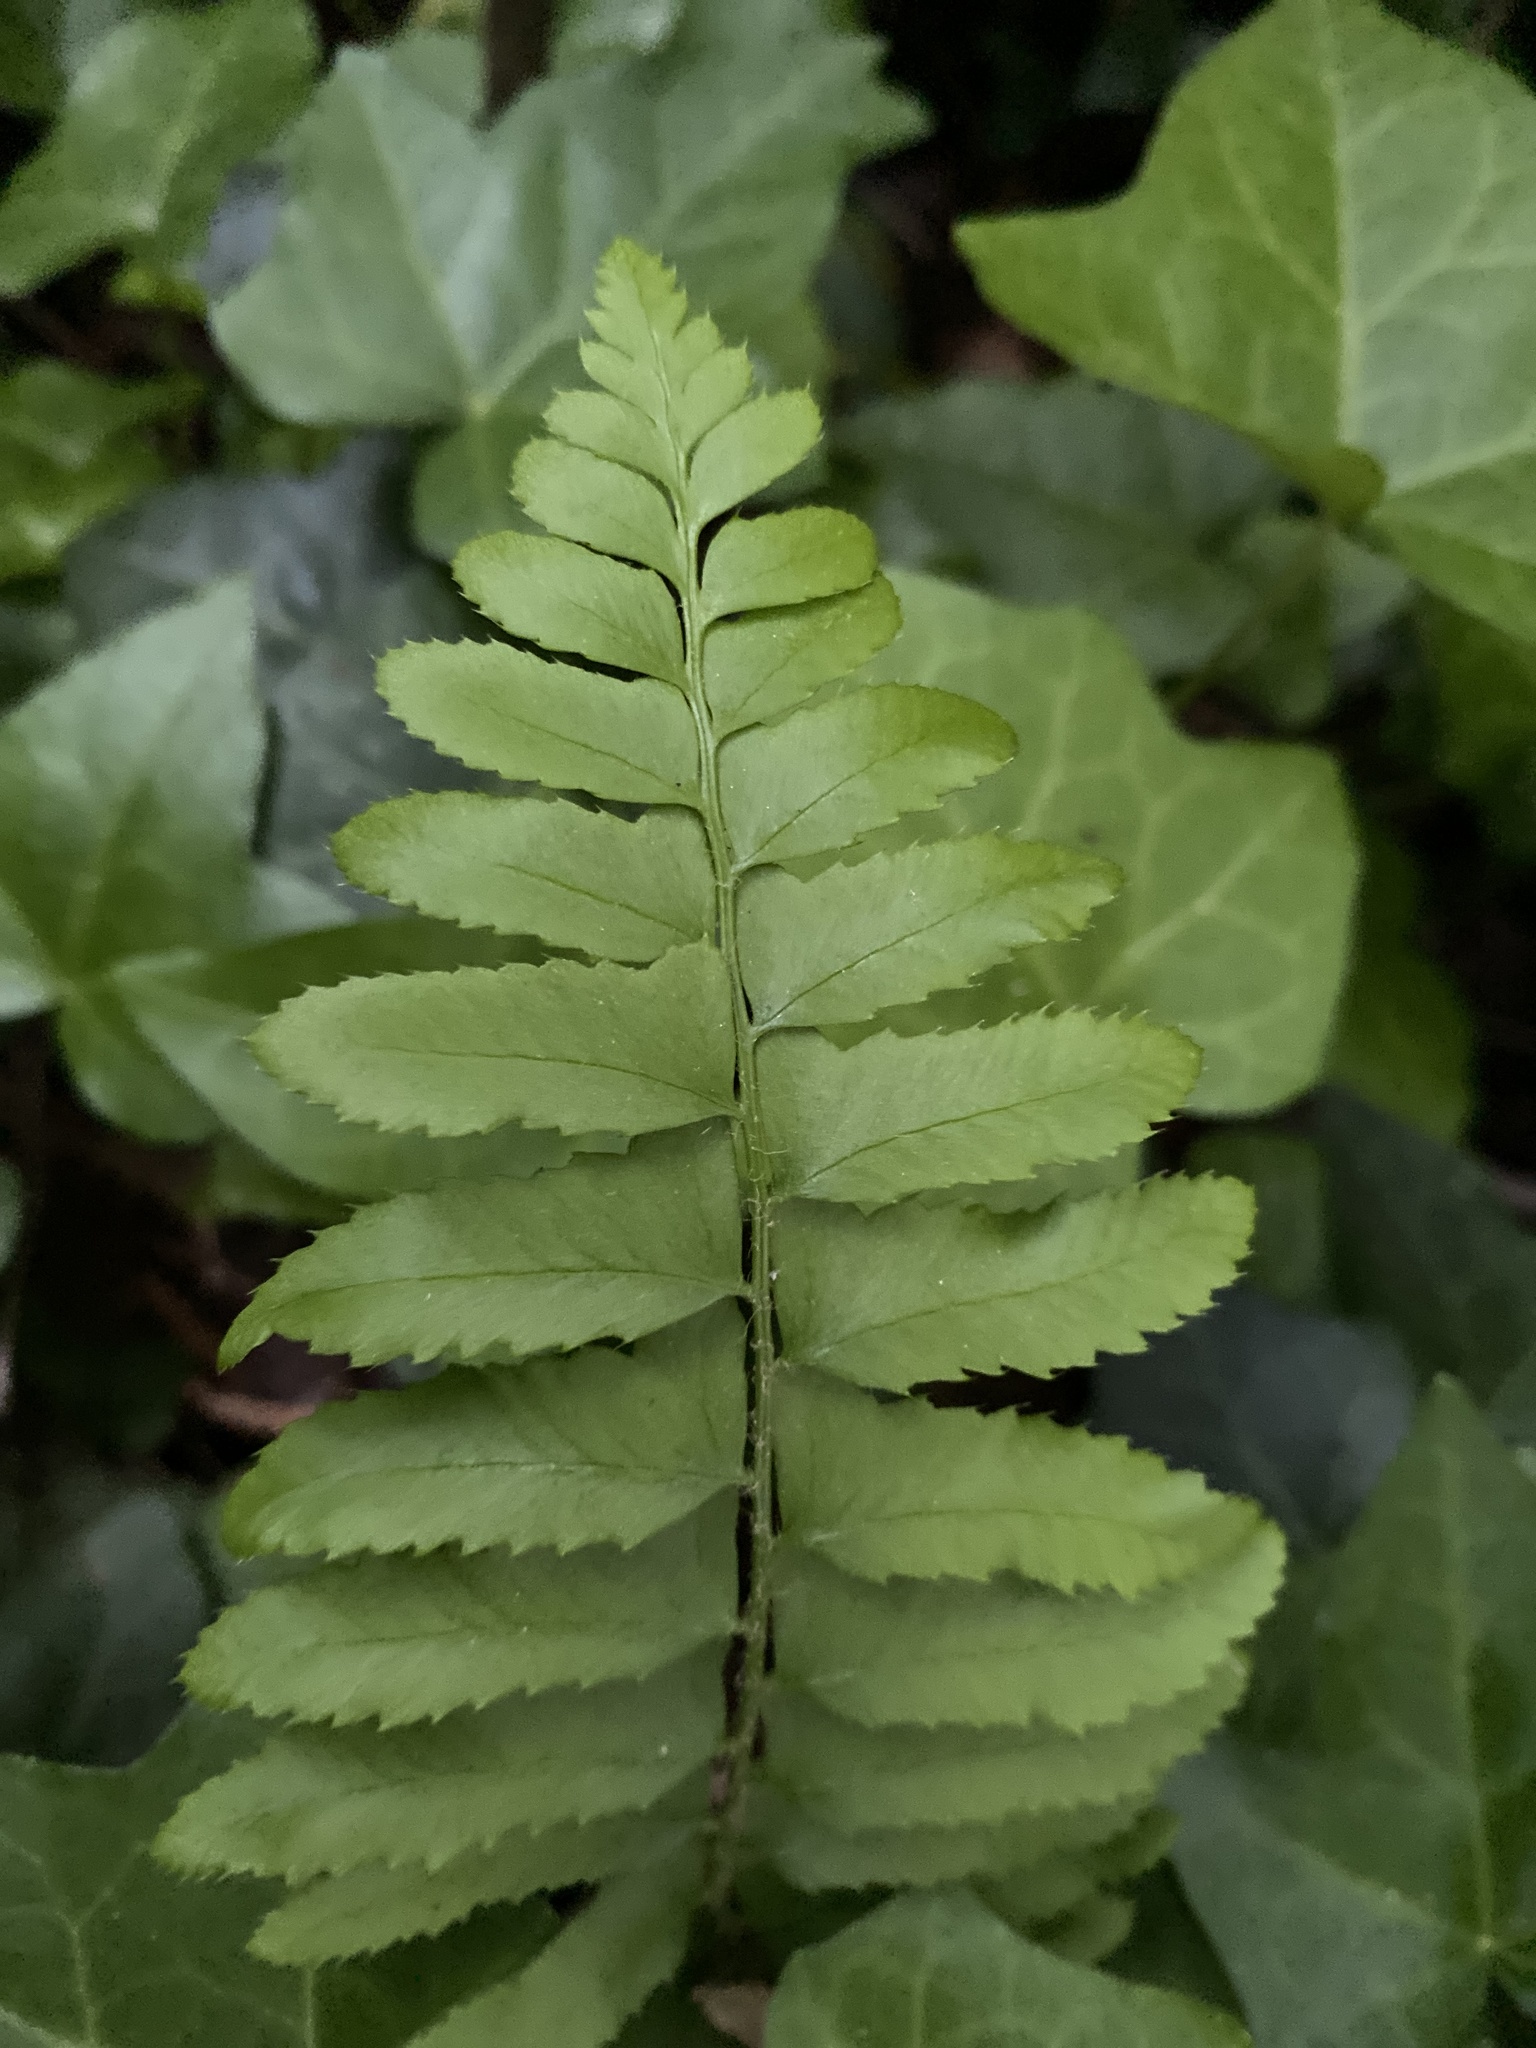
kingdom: Plantae
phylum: Tracheophyta
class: Polypodiopsida
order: Polypodiales
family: Dryopteridaceae
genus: Polystichum
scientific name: Polystichum acrostichoides
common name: Christmas fern
